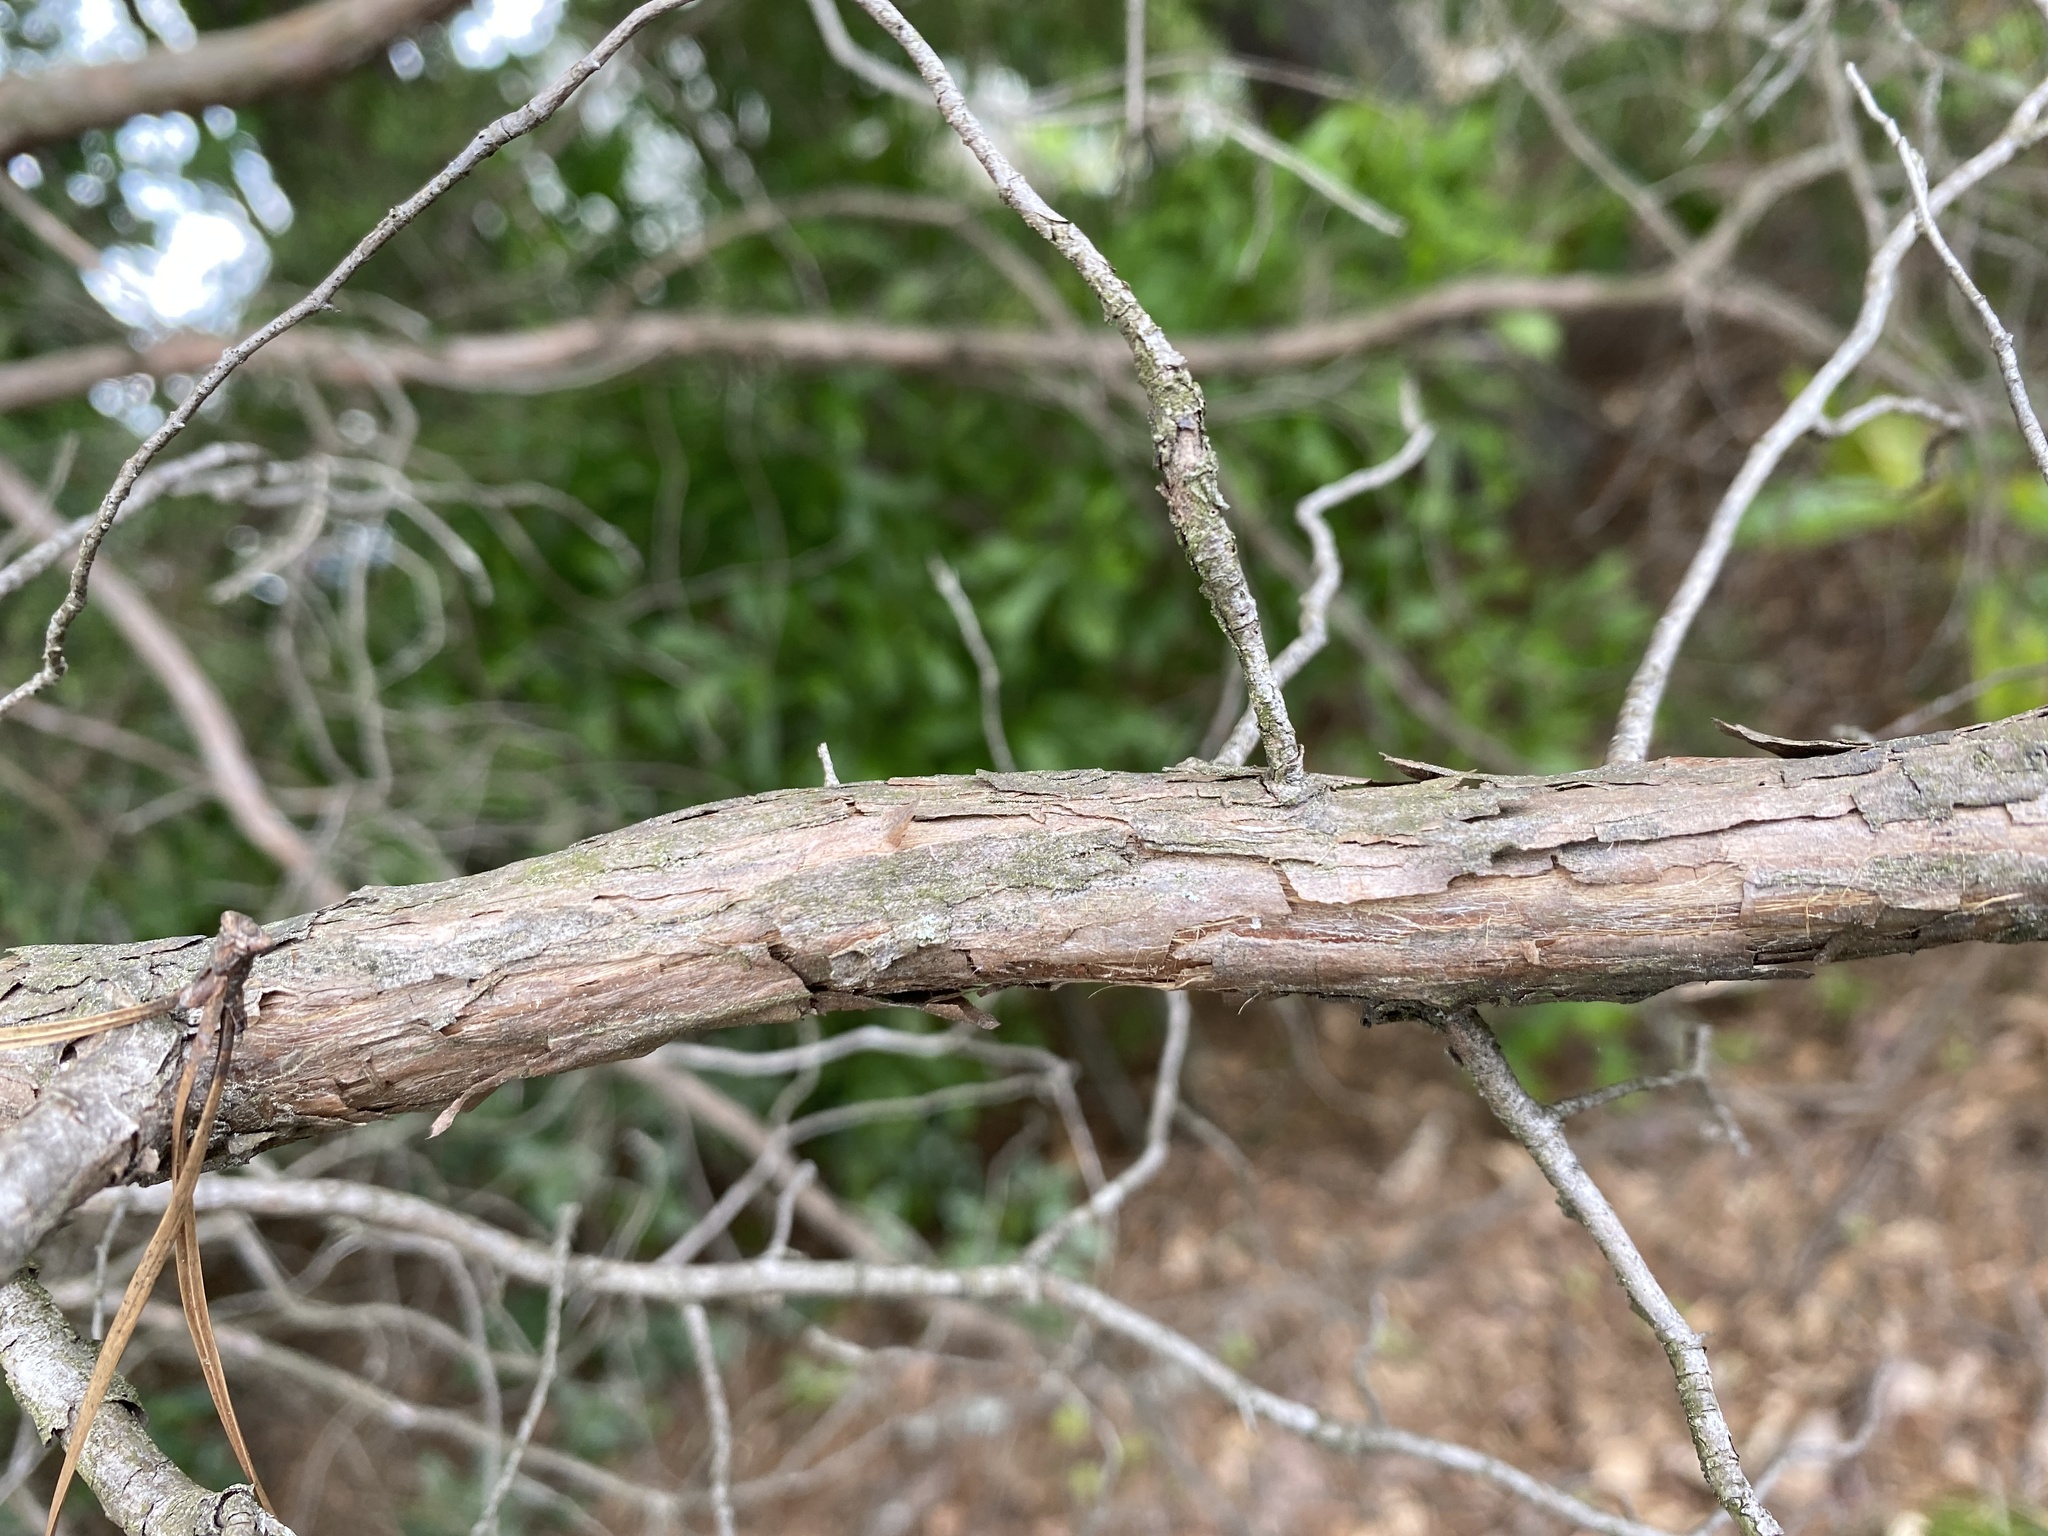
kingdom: Plantae
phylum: Tracheophyta
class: Pinopsida
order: Pinales
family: Cupressaceae
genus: Juniperus
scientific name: Juniperus virginiana
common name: Red juniper
